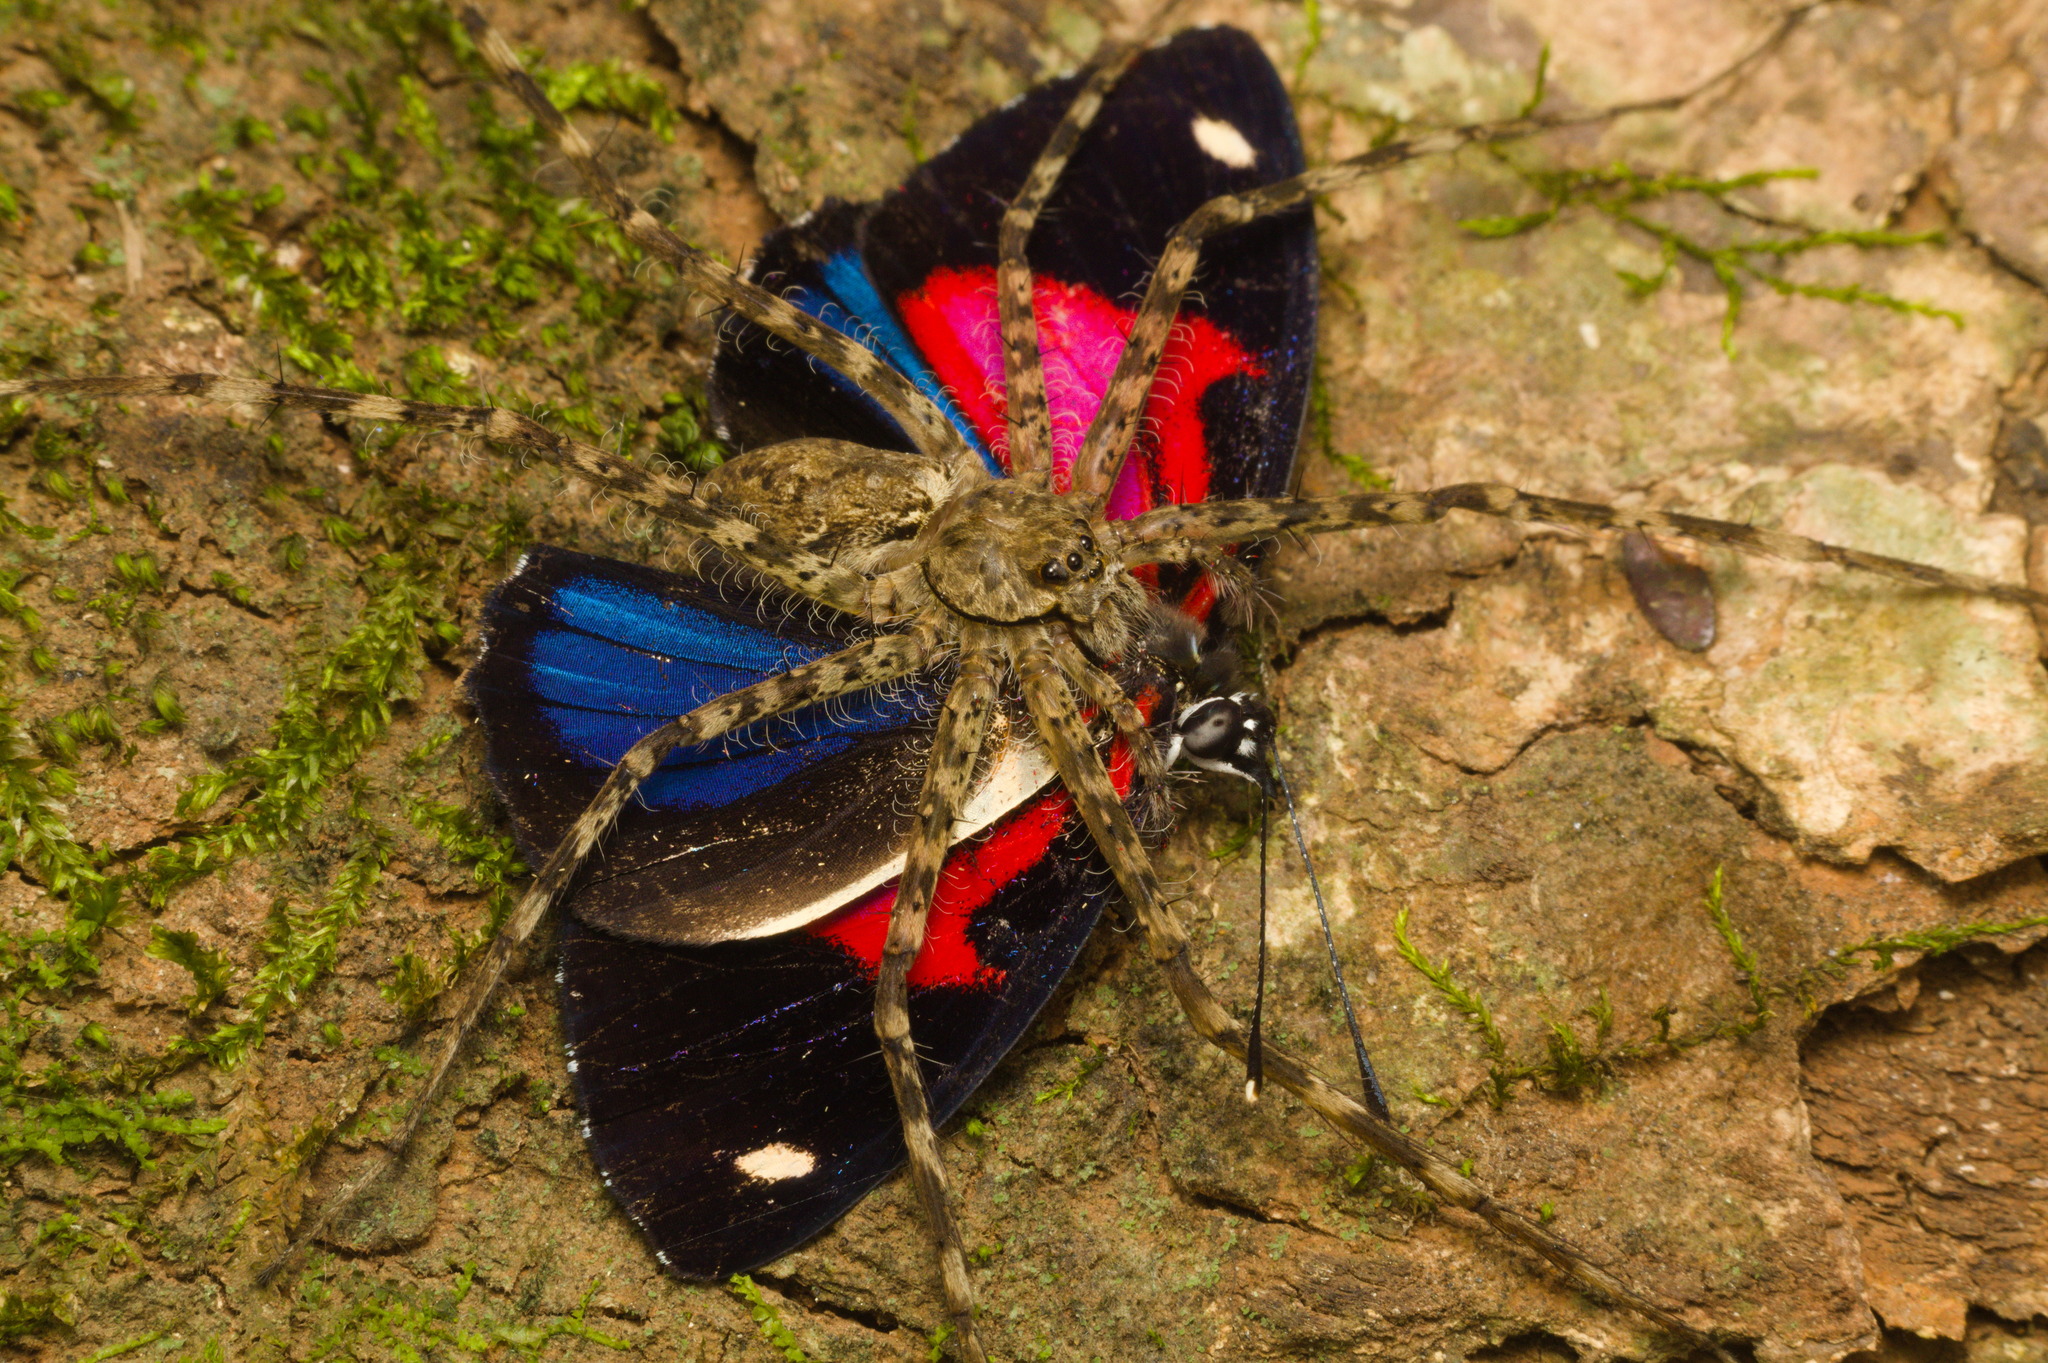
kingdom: Animalia
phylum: Arthropoda
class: Insecta
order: Lepidoptera
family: Nymphalidae
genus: Catagramma
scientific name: Catagramma pyracmon
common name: Google-eyed eighty-eight
